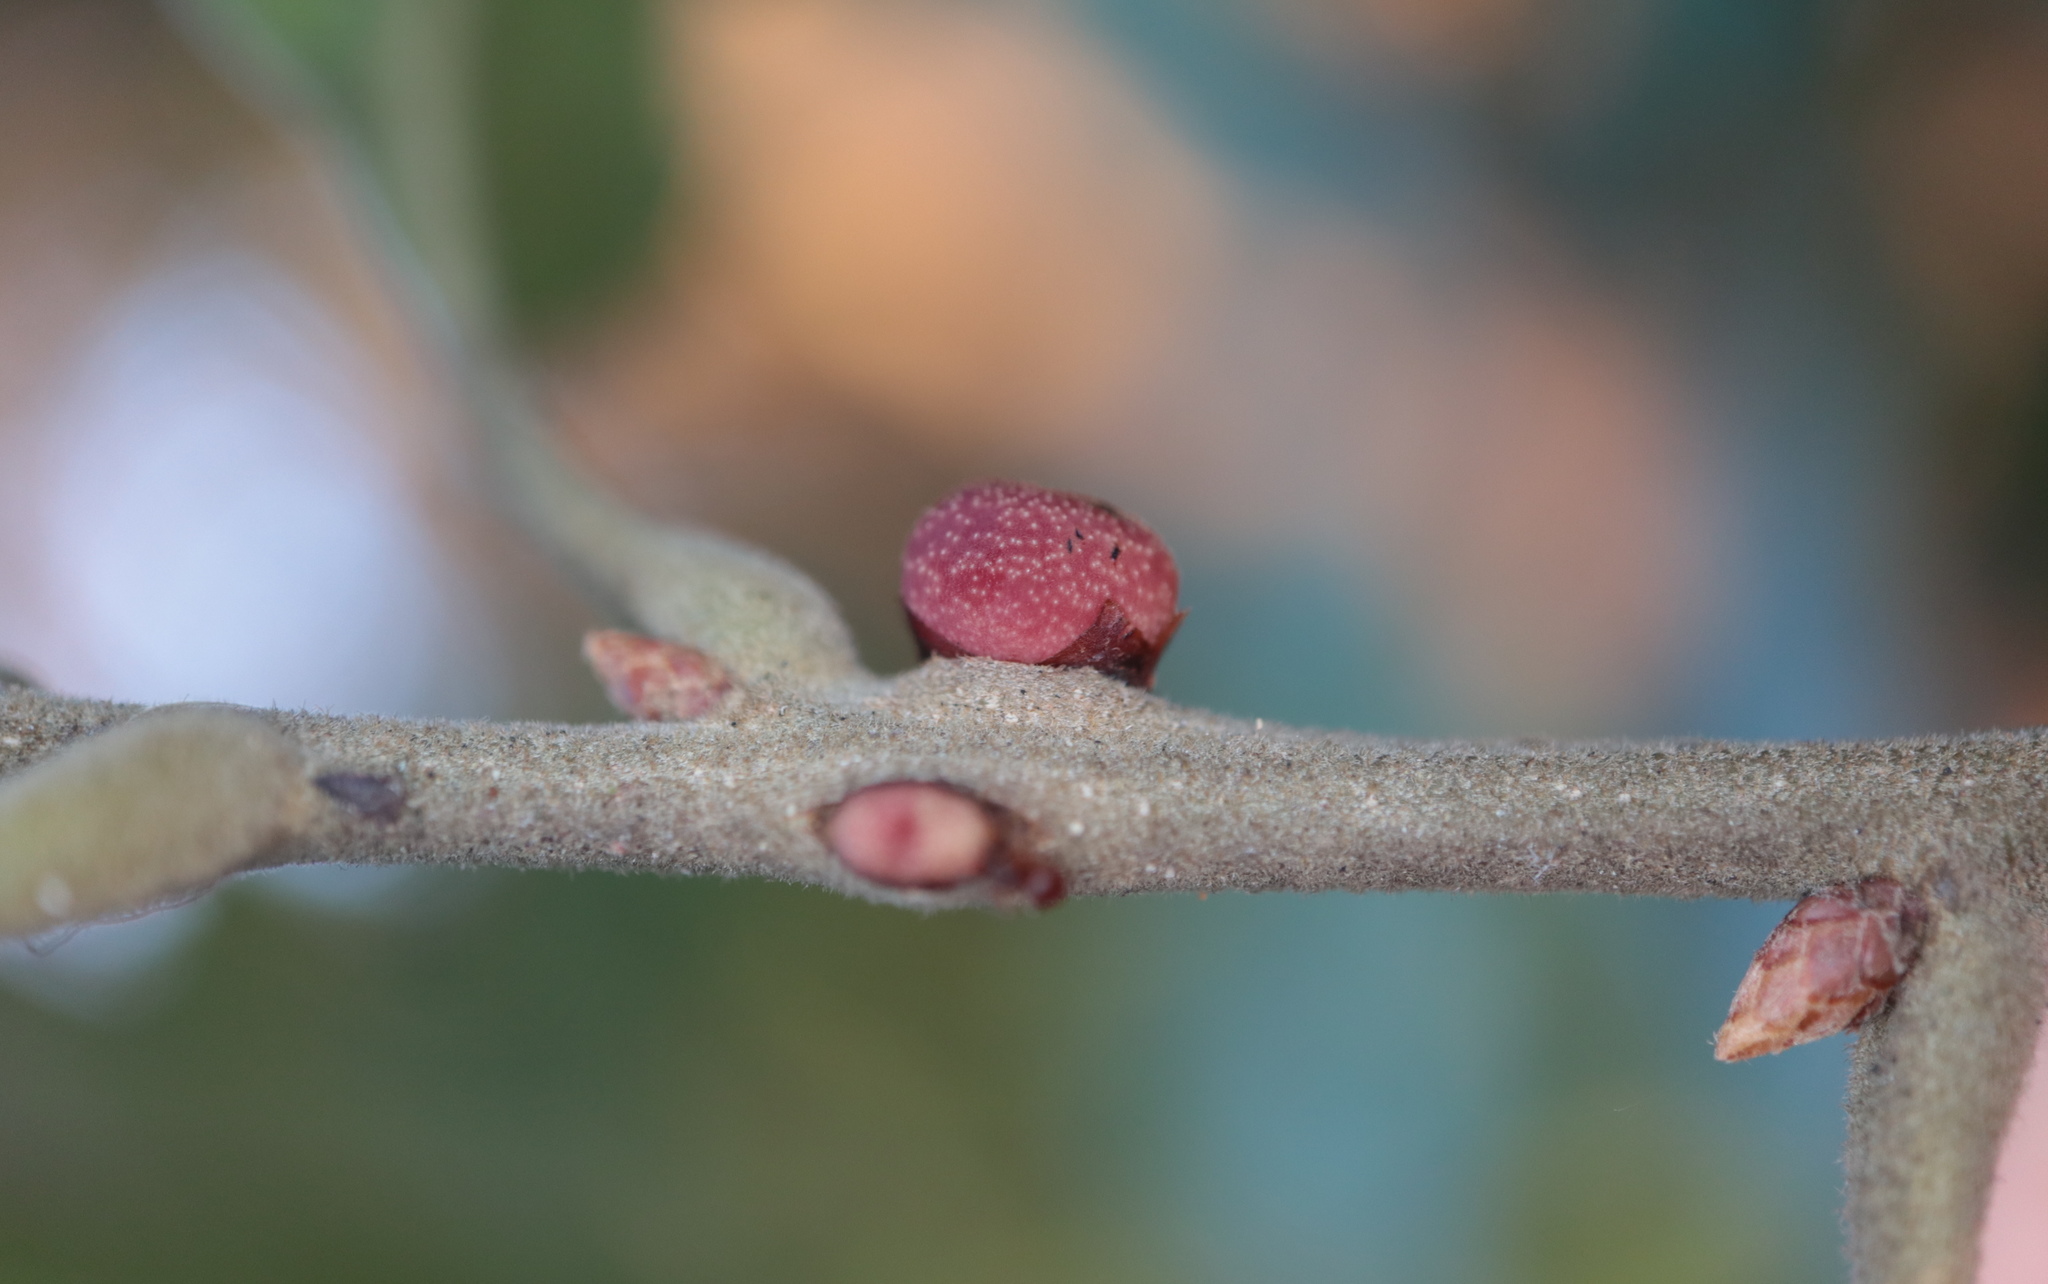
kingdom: Animalia
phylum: Arthropoda
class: Insecta
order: Hymenoptera
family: Cynipidae
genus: Kokkocynips
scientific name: Kokkocynips imbricariae
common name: Banded bullet gall wasp
